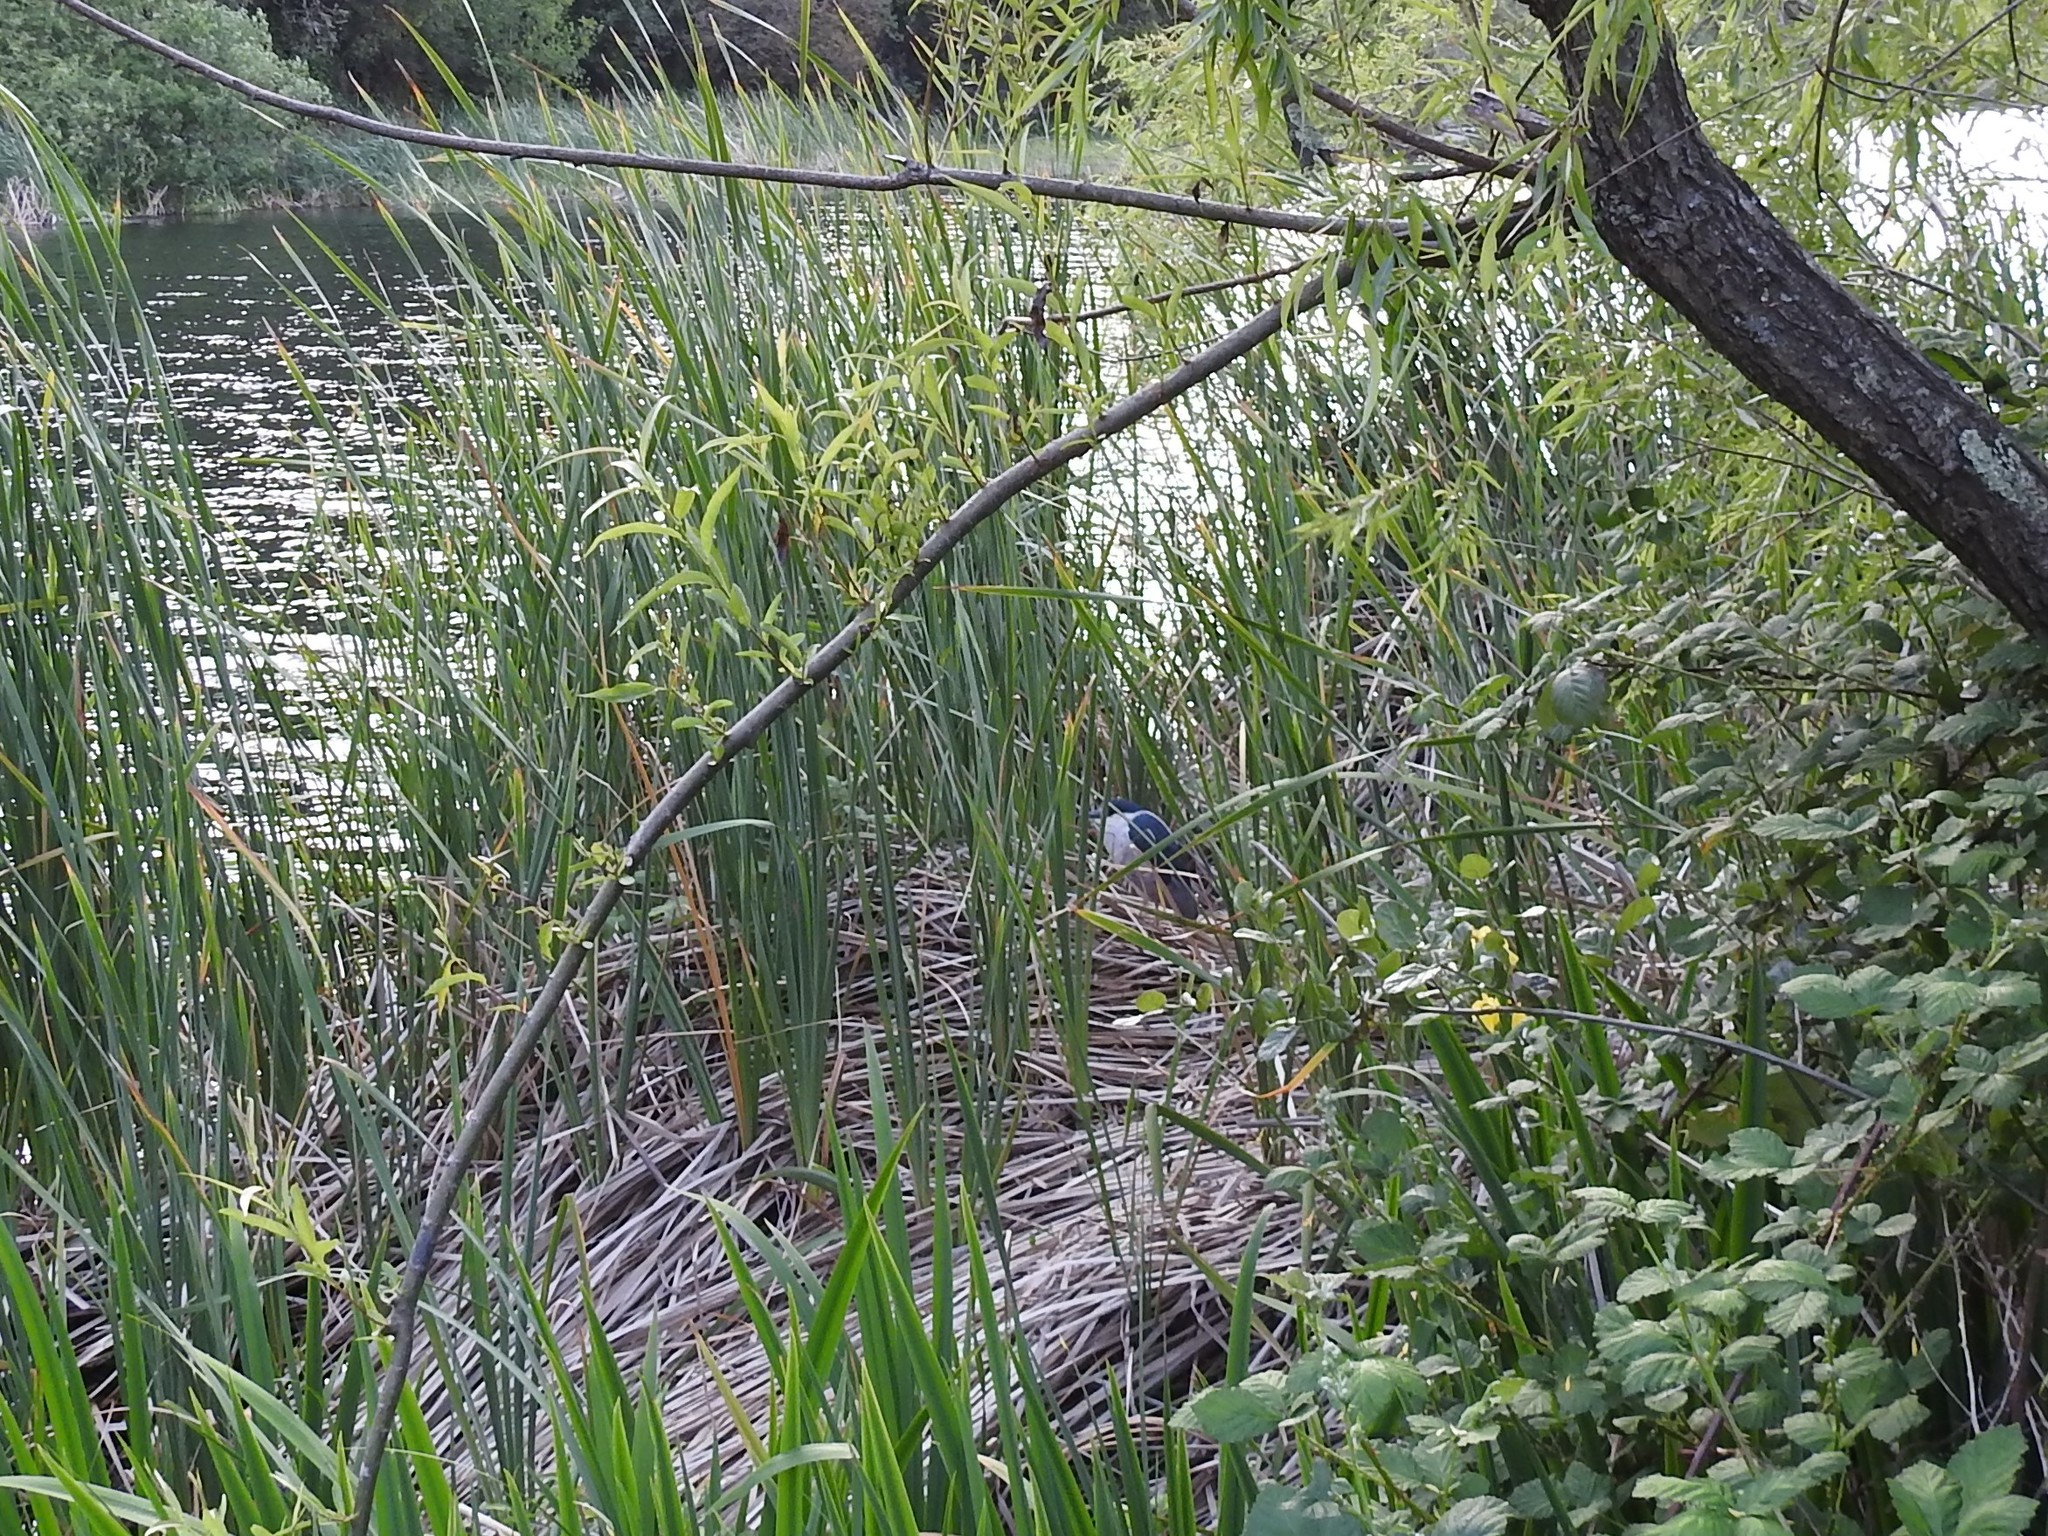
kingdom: Animalia
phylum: Chordata
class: Aves
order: Pelecaniformes
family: Ardeidae
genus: Nycticorax
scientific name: Nycticorax nycticorax
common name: Black-crowned night heron
